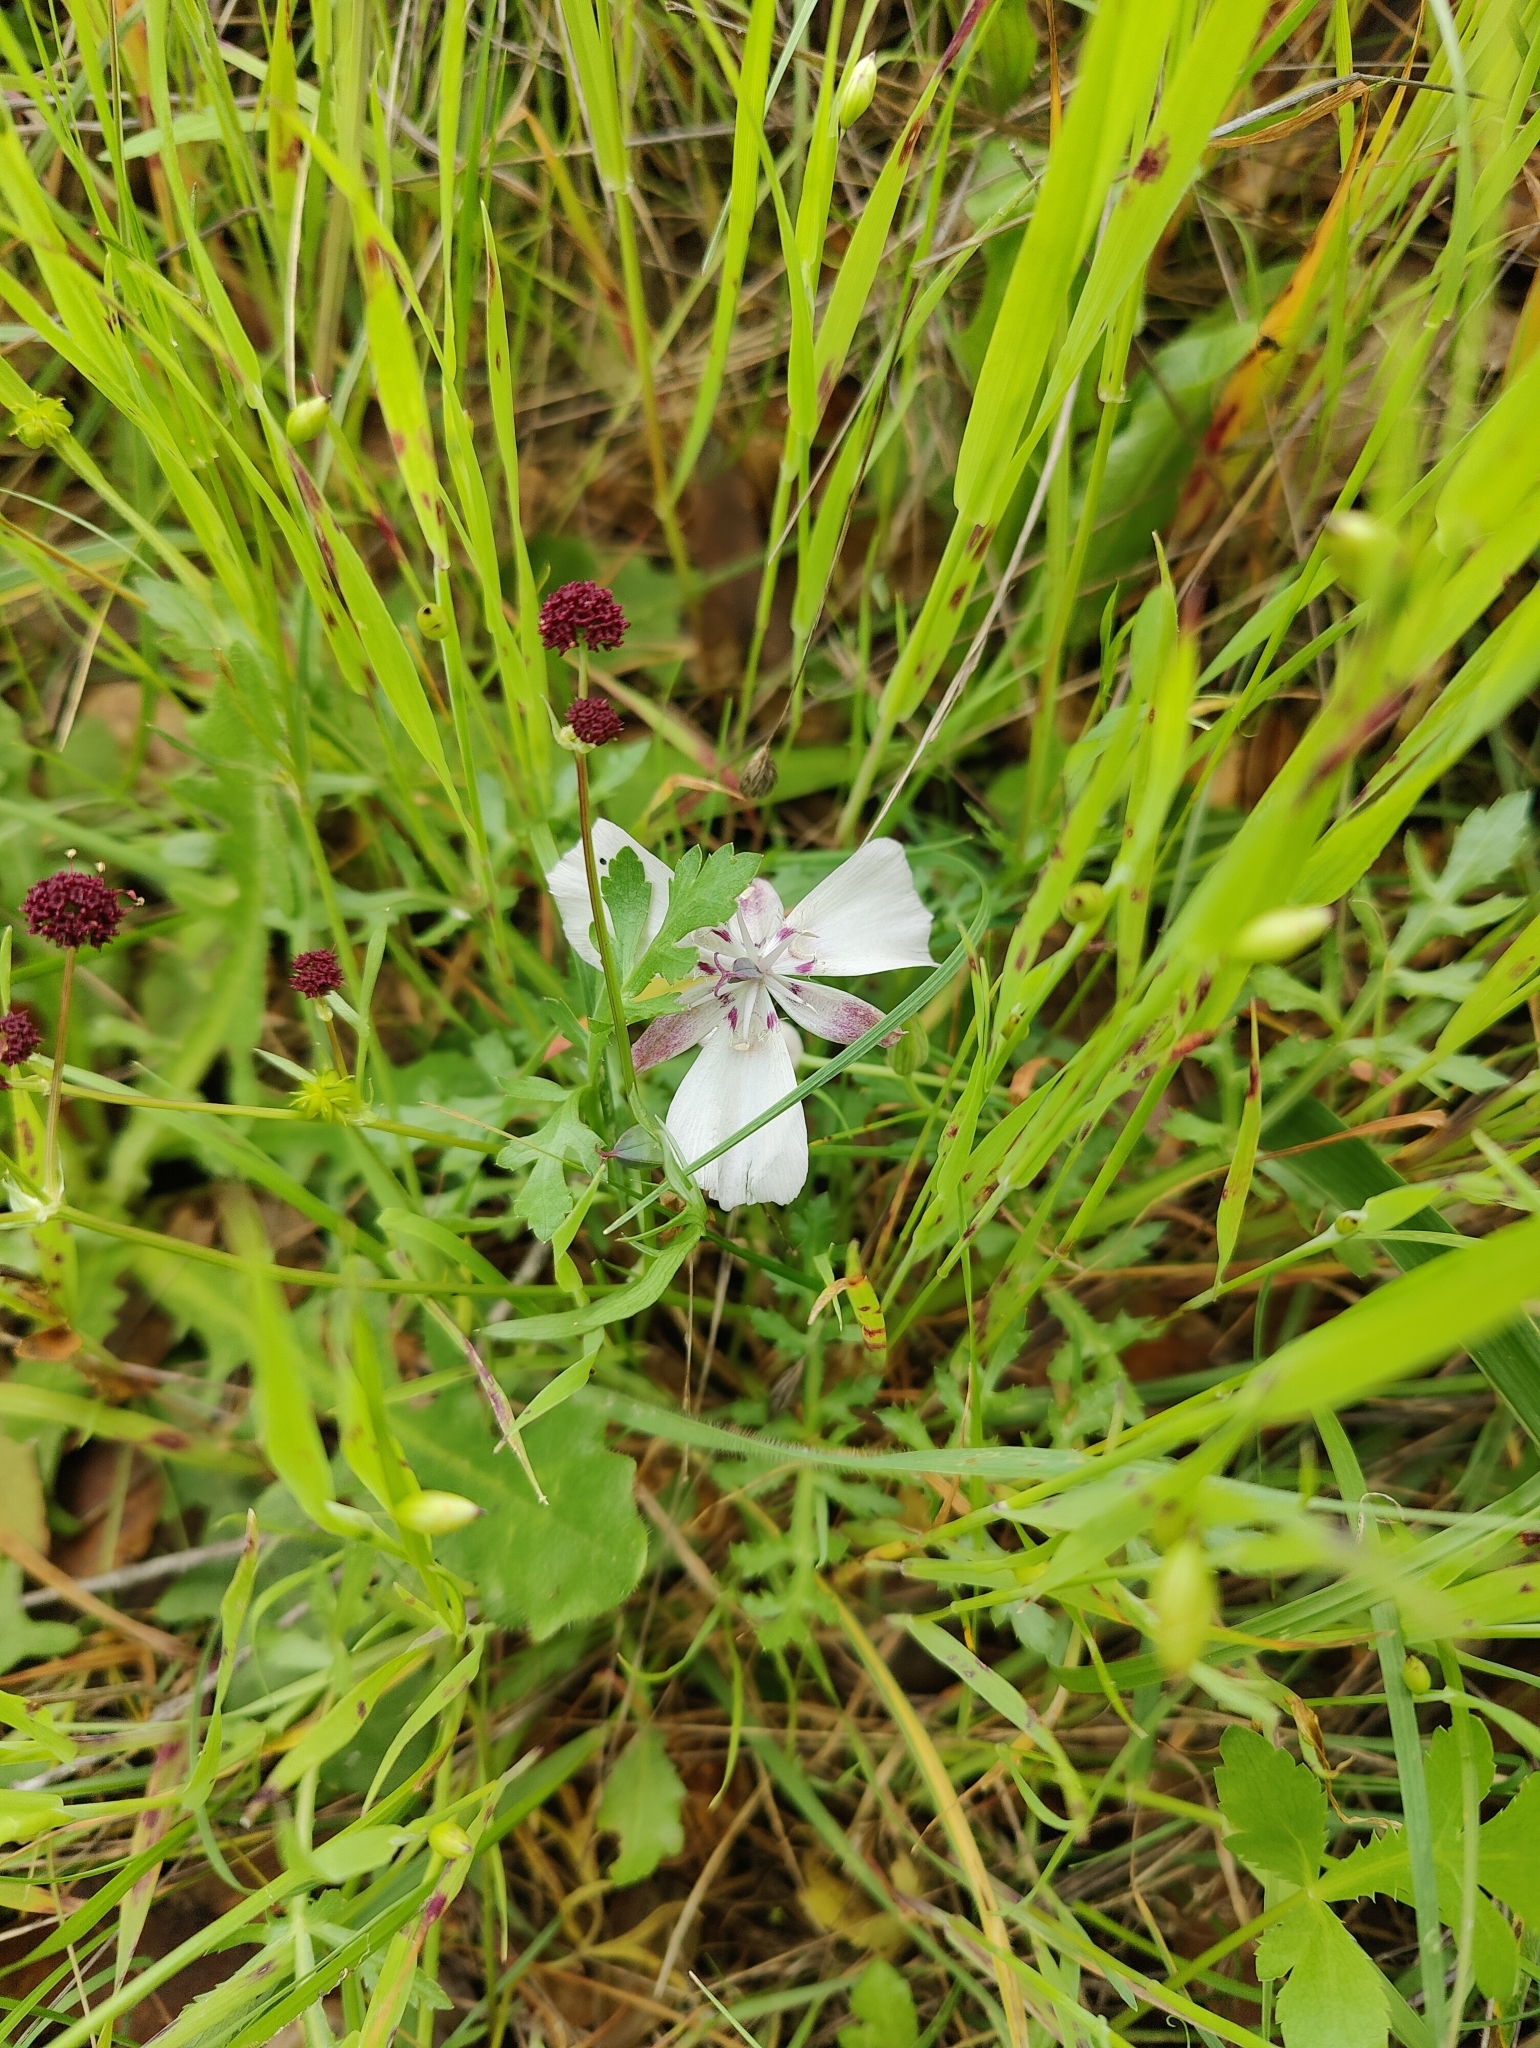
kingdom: Plantae
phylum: Tracheophyta
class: Liliopsida
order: Liliales
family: Liliaceae
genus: Calochortus
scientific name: Calochortus umbellatus
